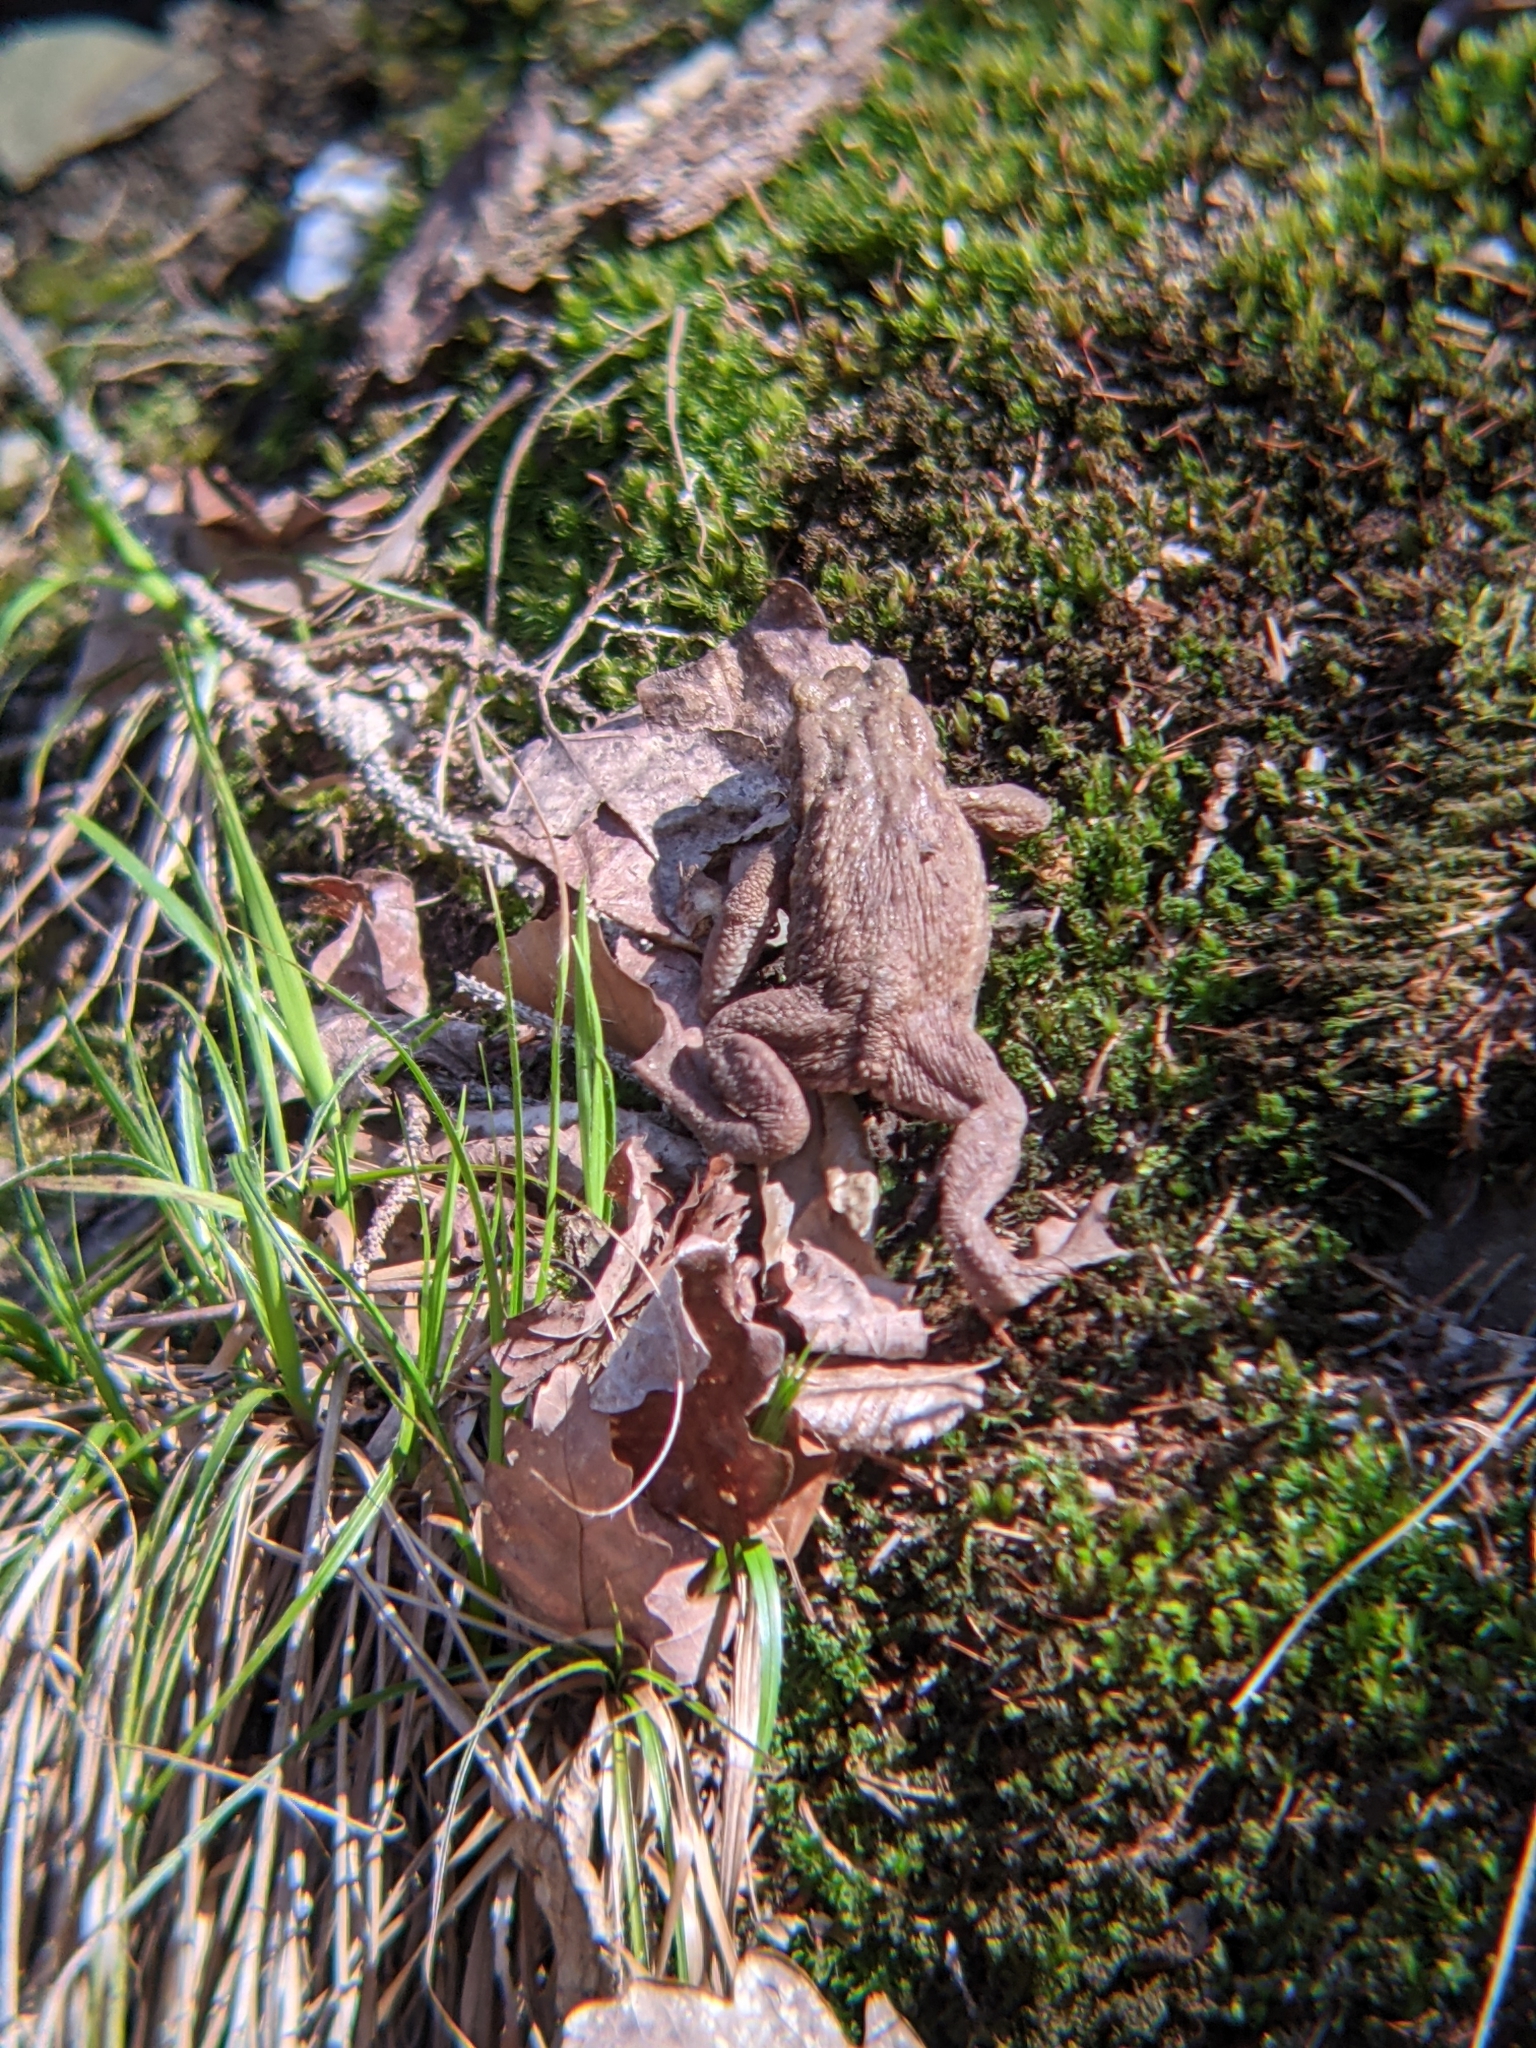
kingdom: Animalia
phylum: Chordata
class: Amphibia
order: Anura
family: Bufonidae
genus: Bufo
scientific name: Bufo bufo
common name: Common toad
